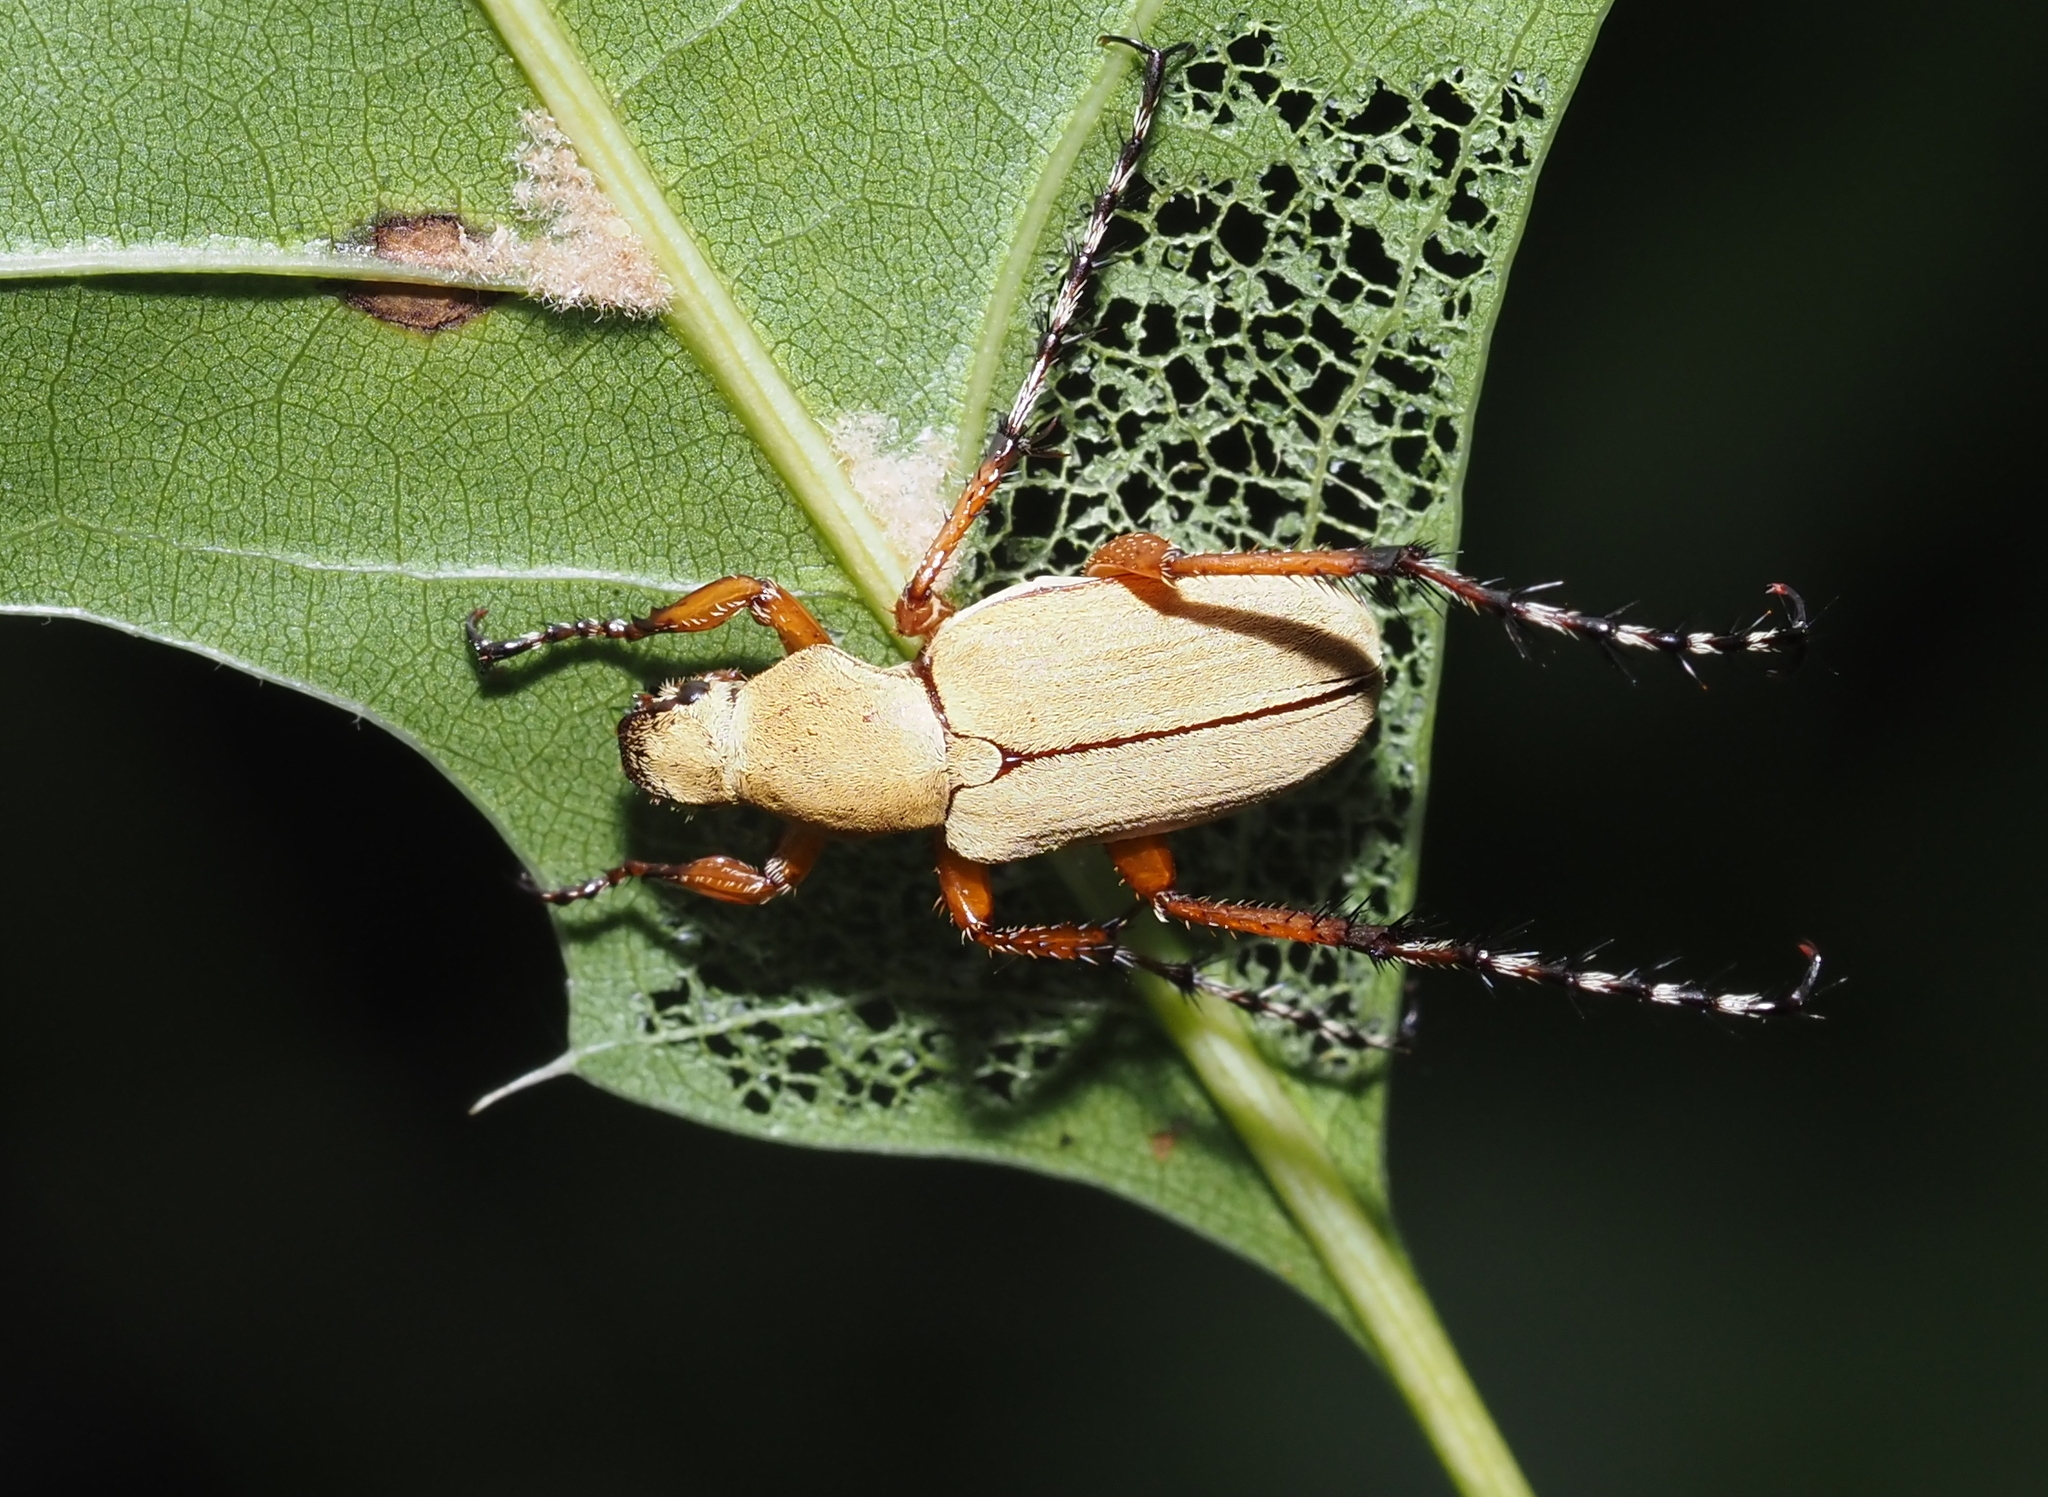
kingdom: Animalia
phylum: Arthropoda
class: Insecta
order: Coleoptera
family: Scarabaeidae
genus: Macrodactylus
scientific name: Macrodactylus subspinosus
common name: American rose chafer
